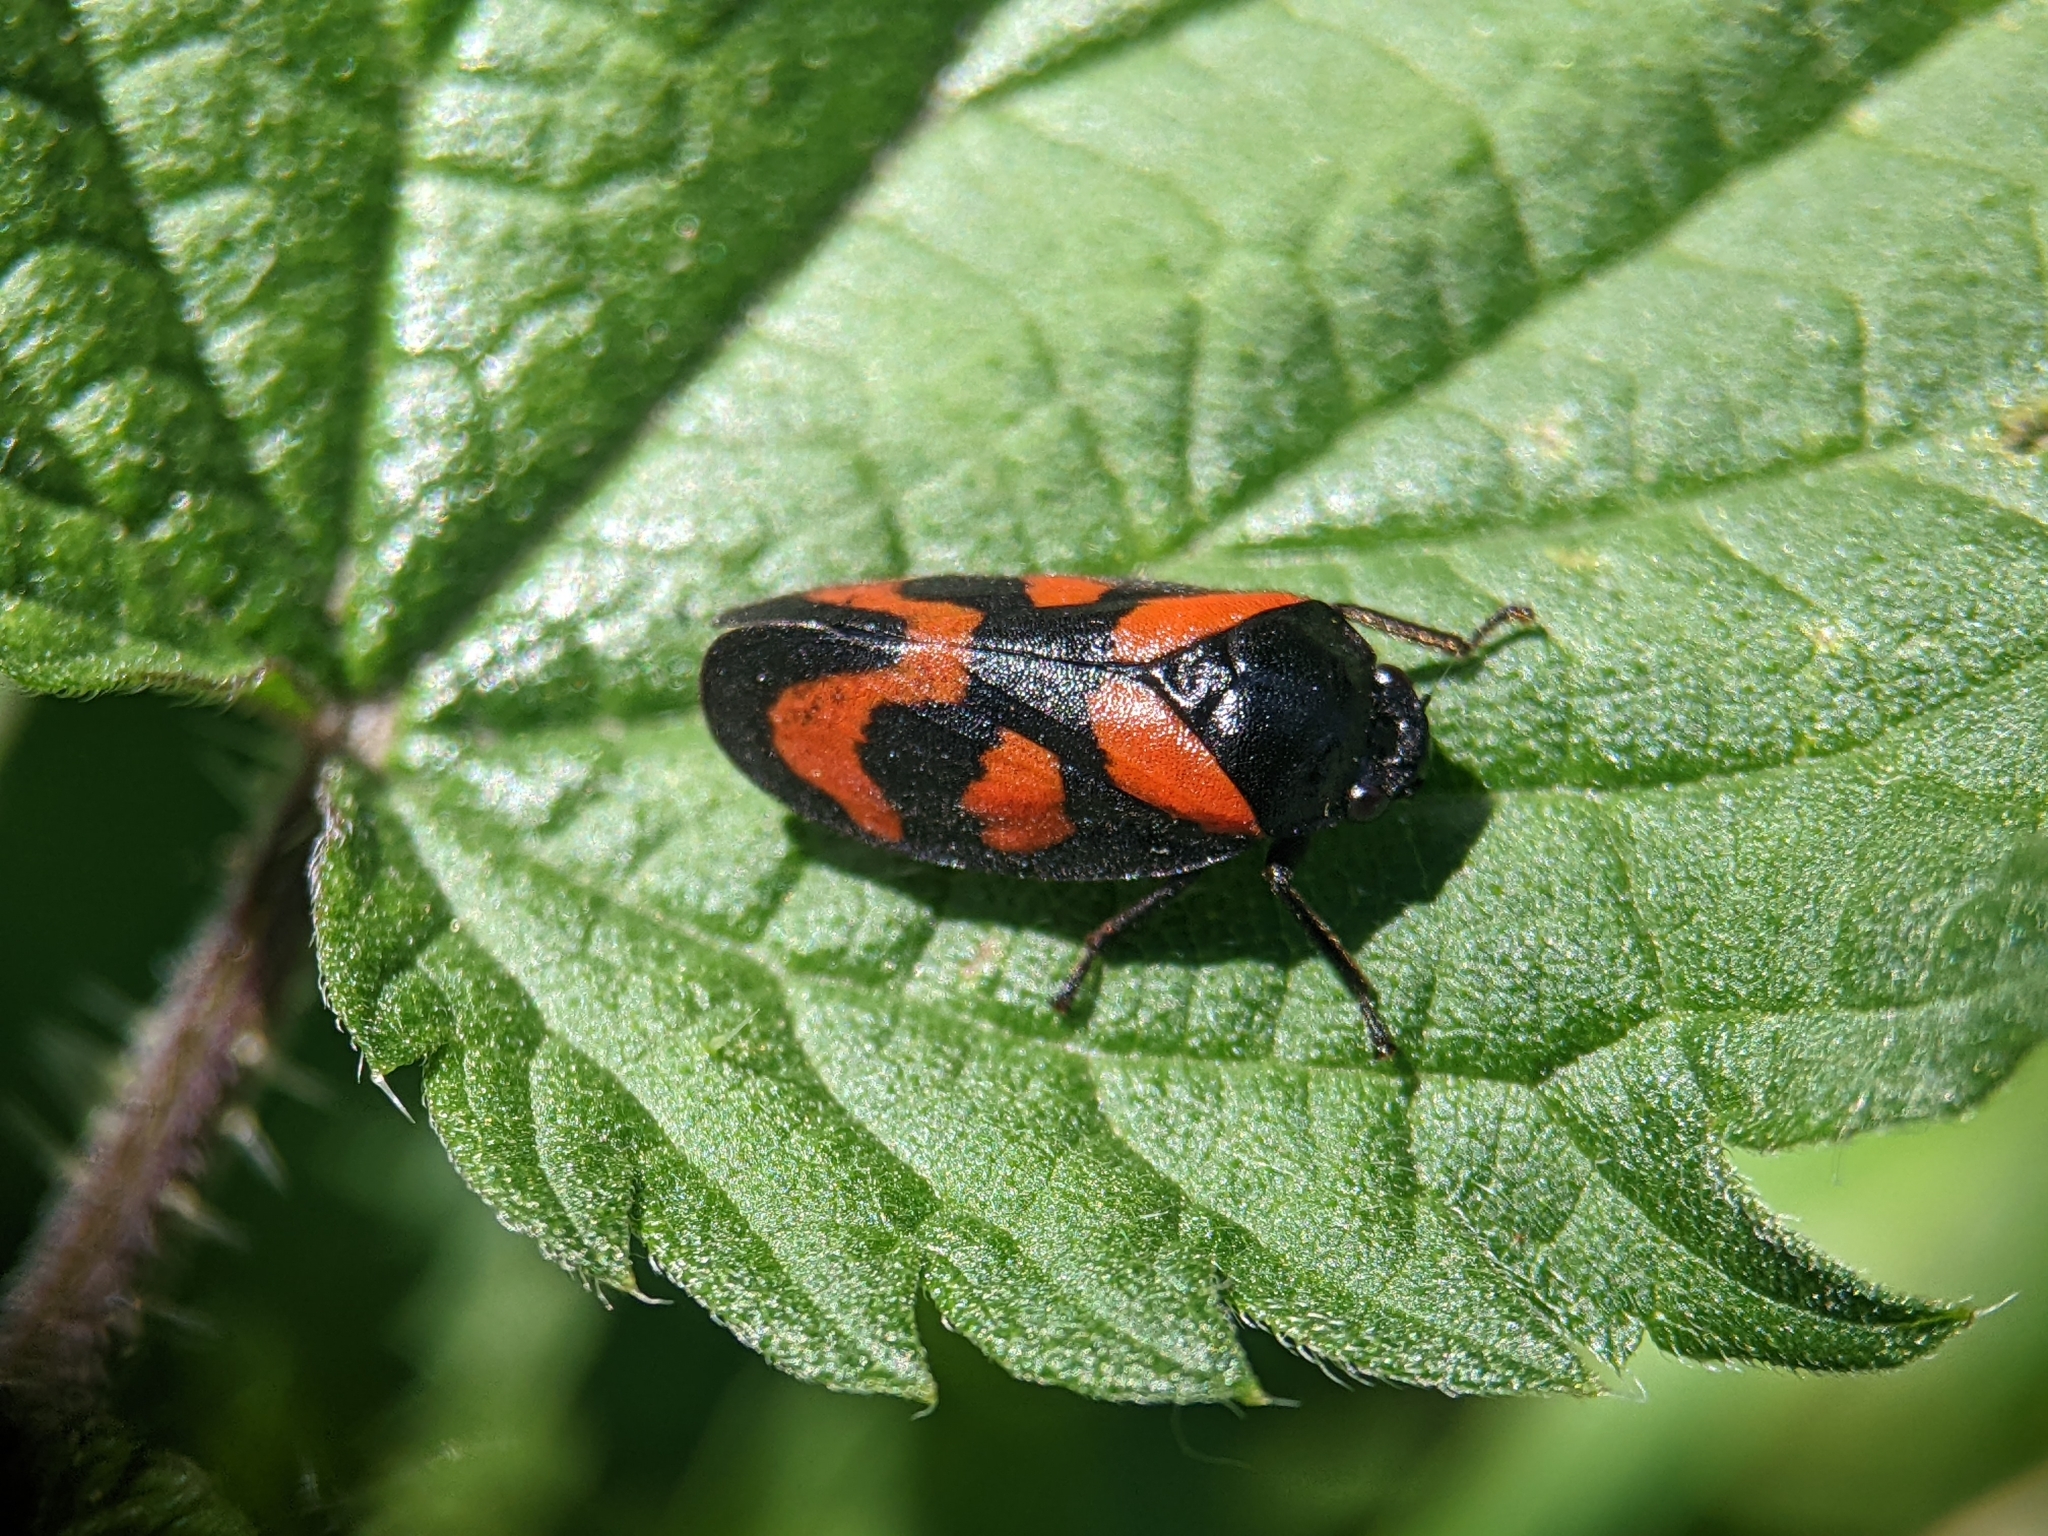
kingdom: Animalia
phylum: Arthropoda
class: Insecta
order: Hemiptera
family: Cercopidae
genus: Cercopis
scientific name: Cercopis vulnerata
